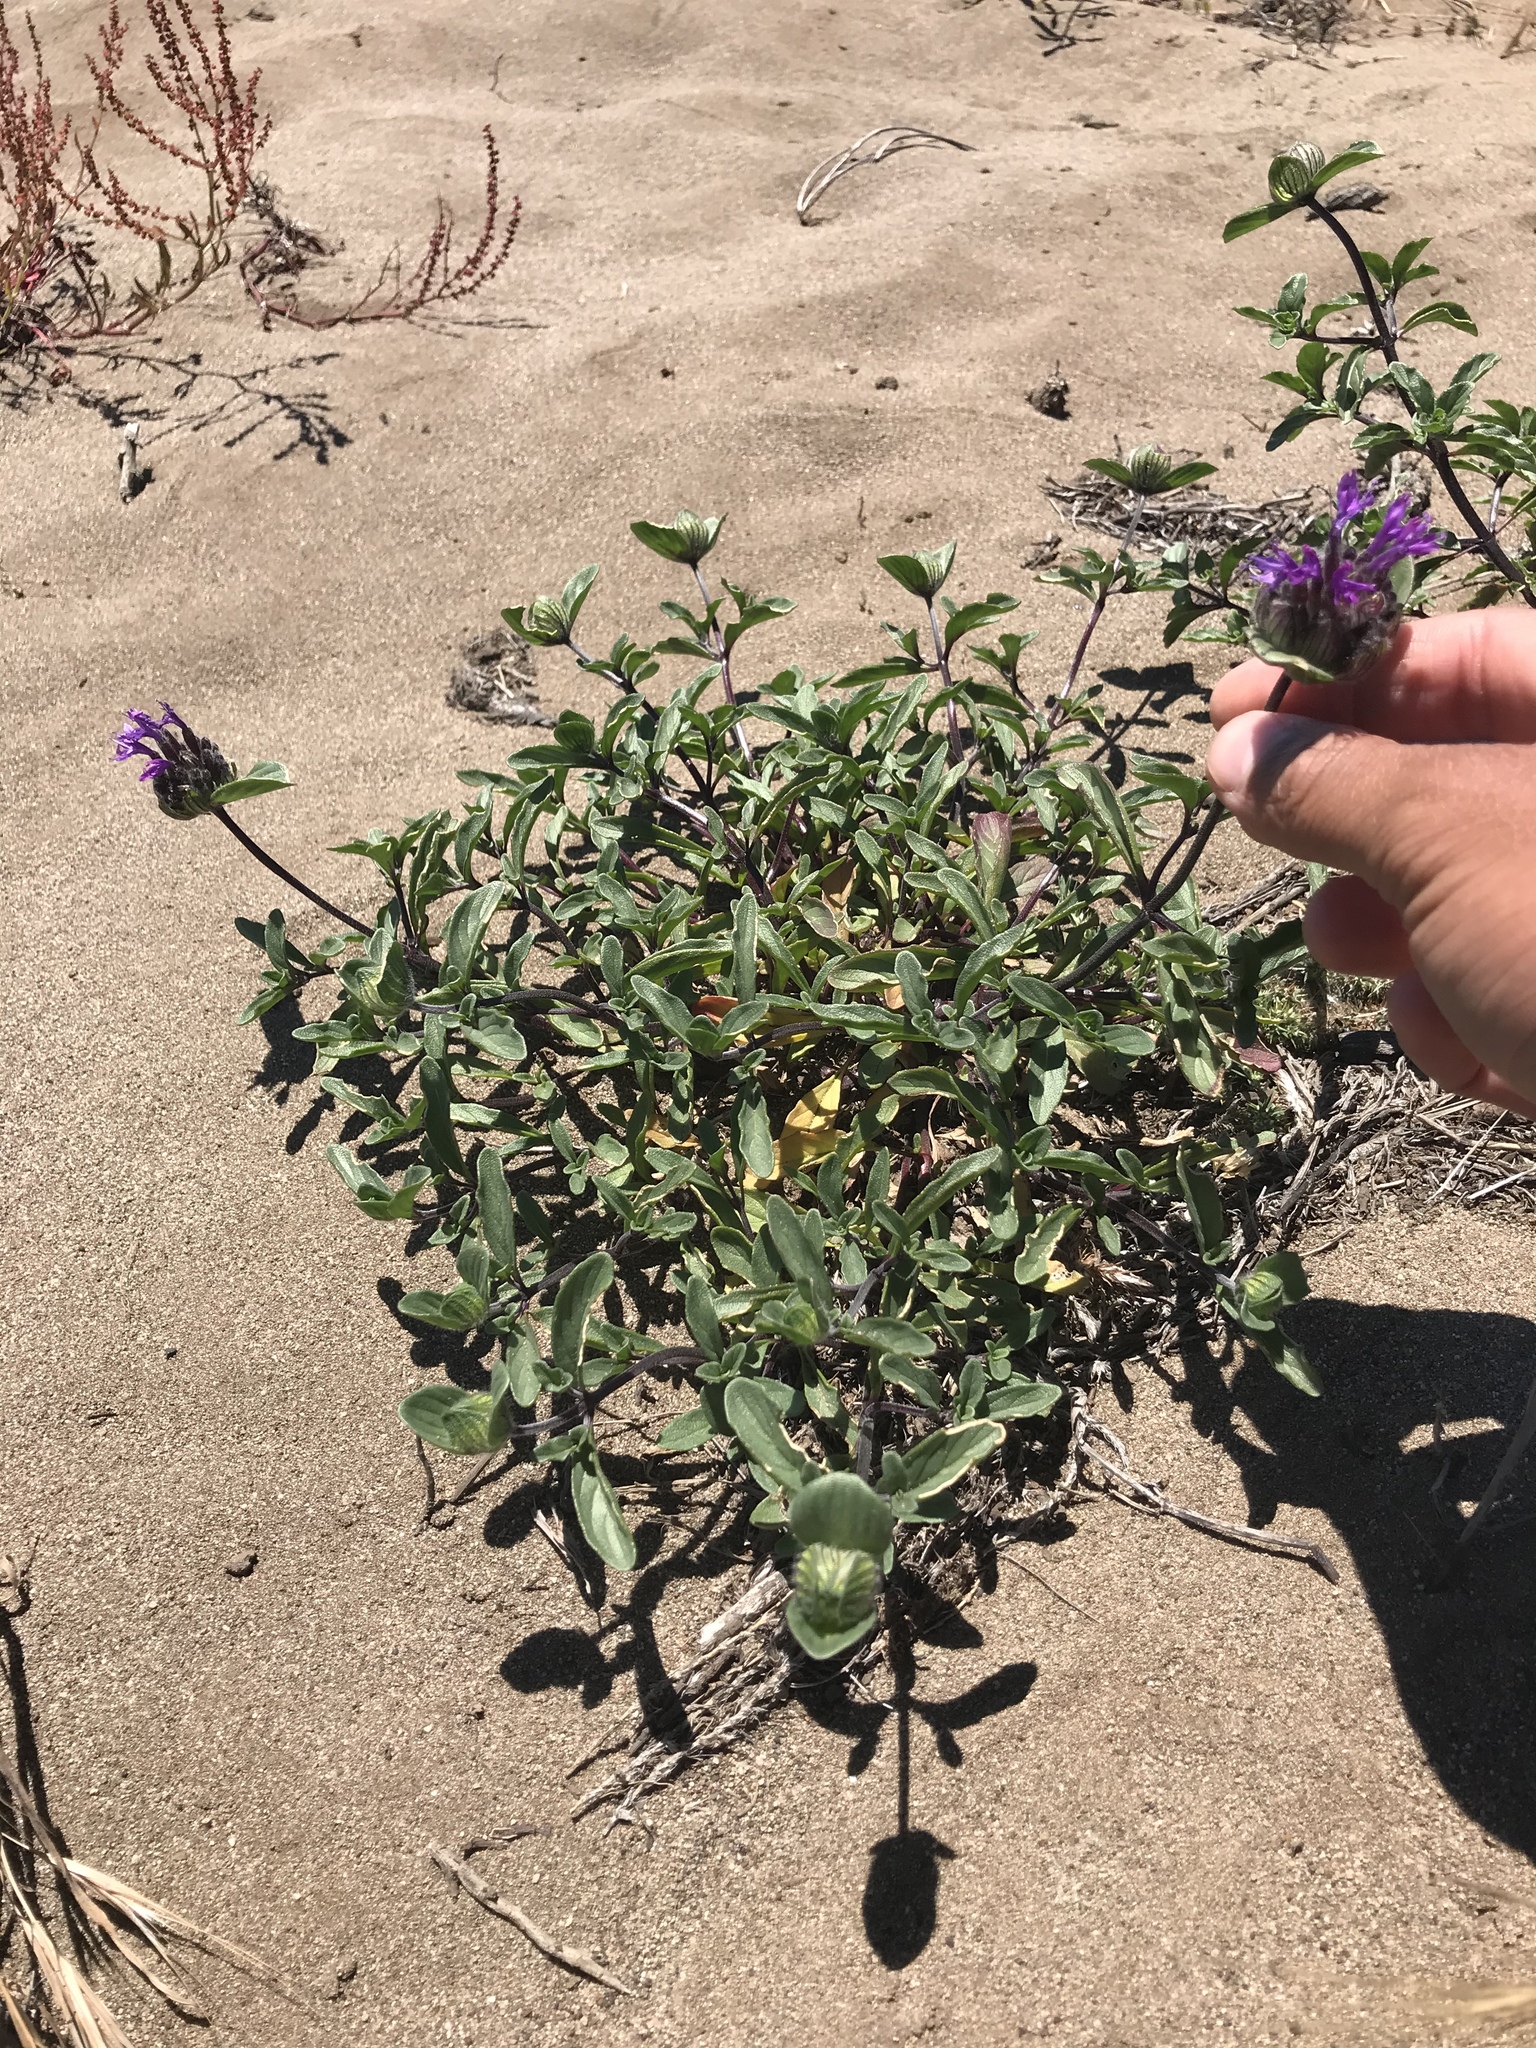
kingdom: Plantae
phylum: Tracheophyta
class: Magnoliopsida
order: Lamiales
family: Lamiaceae
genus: Monardella
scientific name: Monardella sinuata
